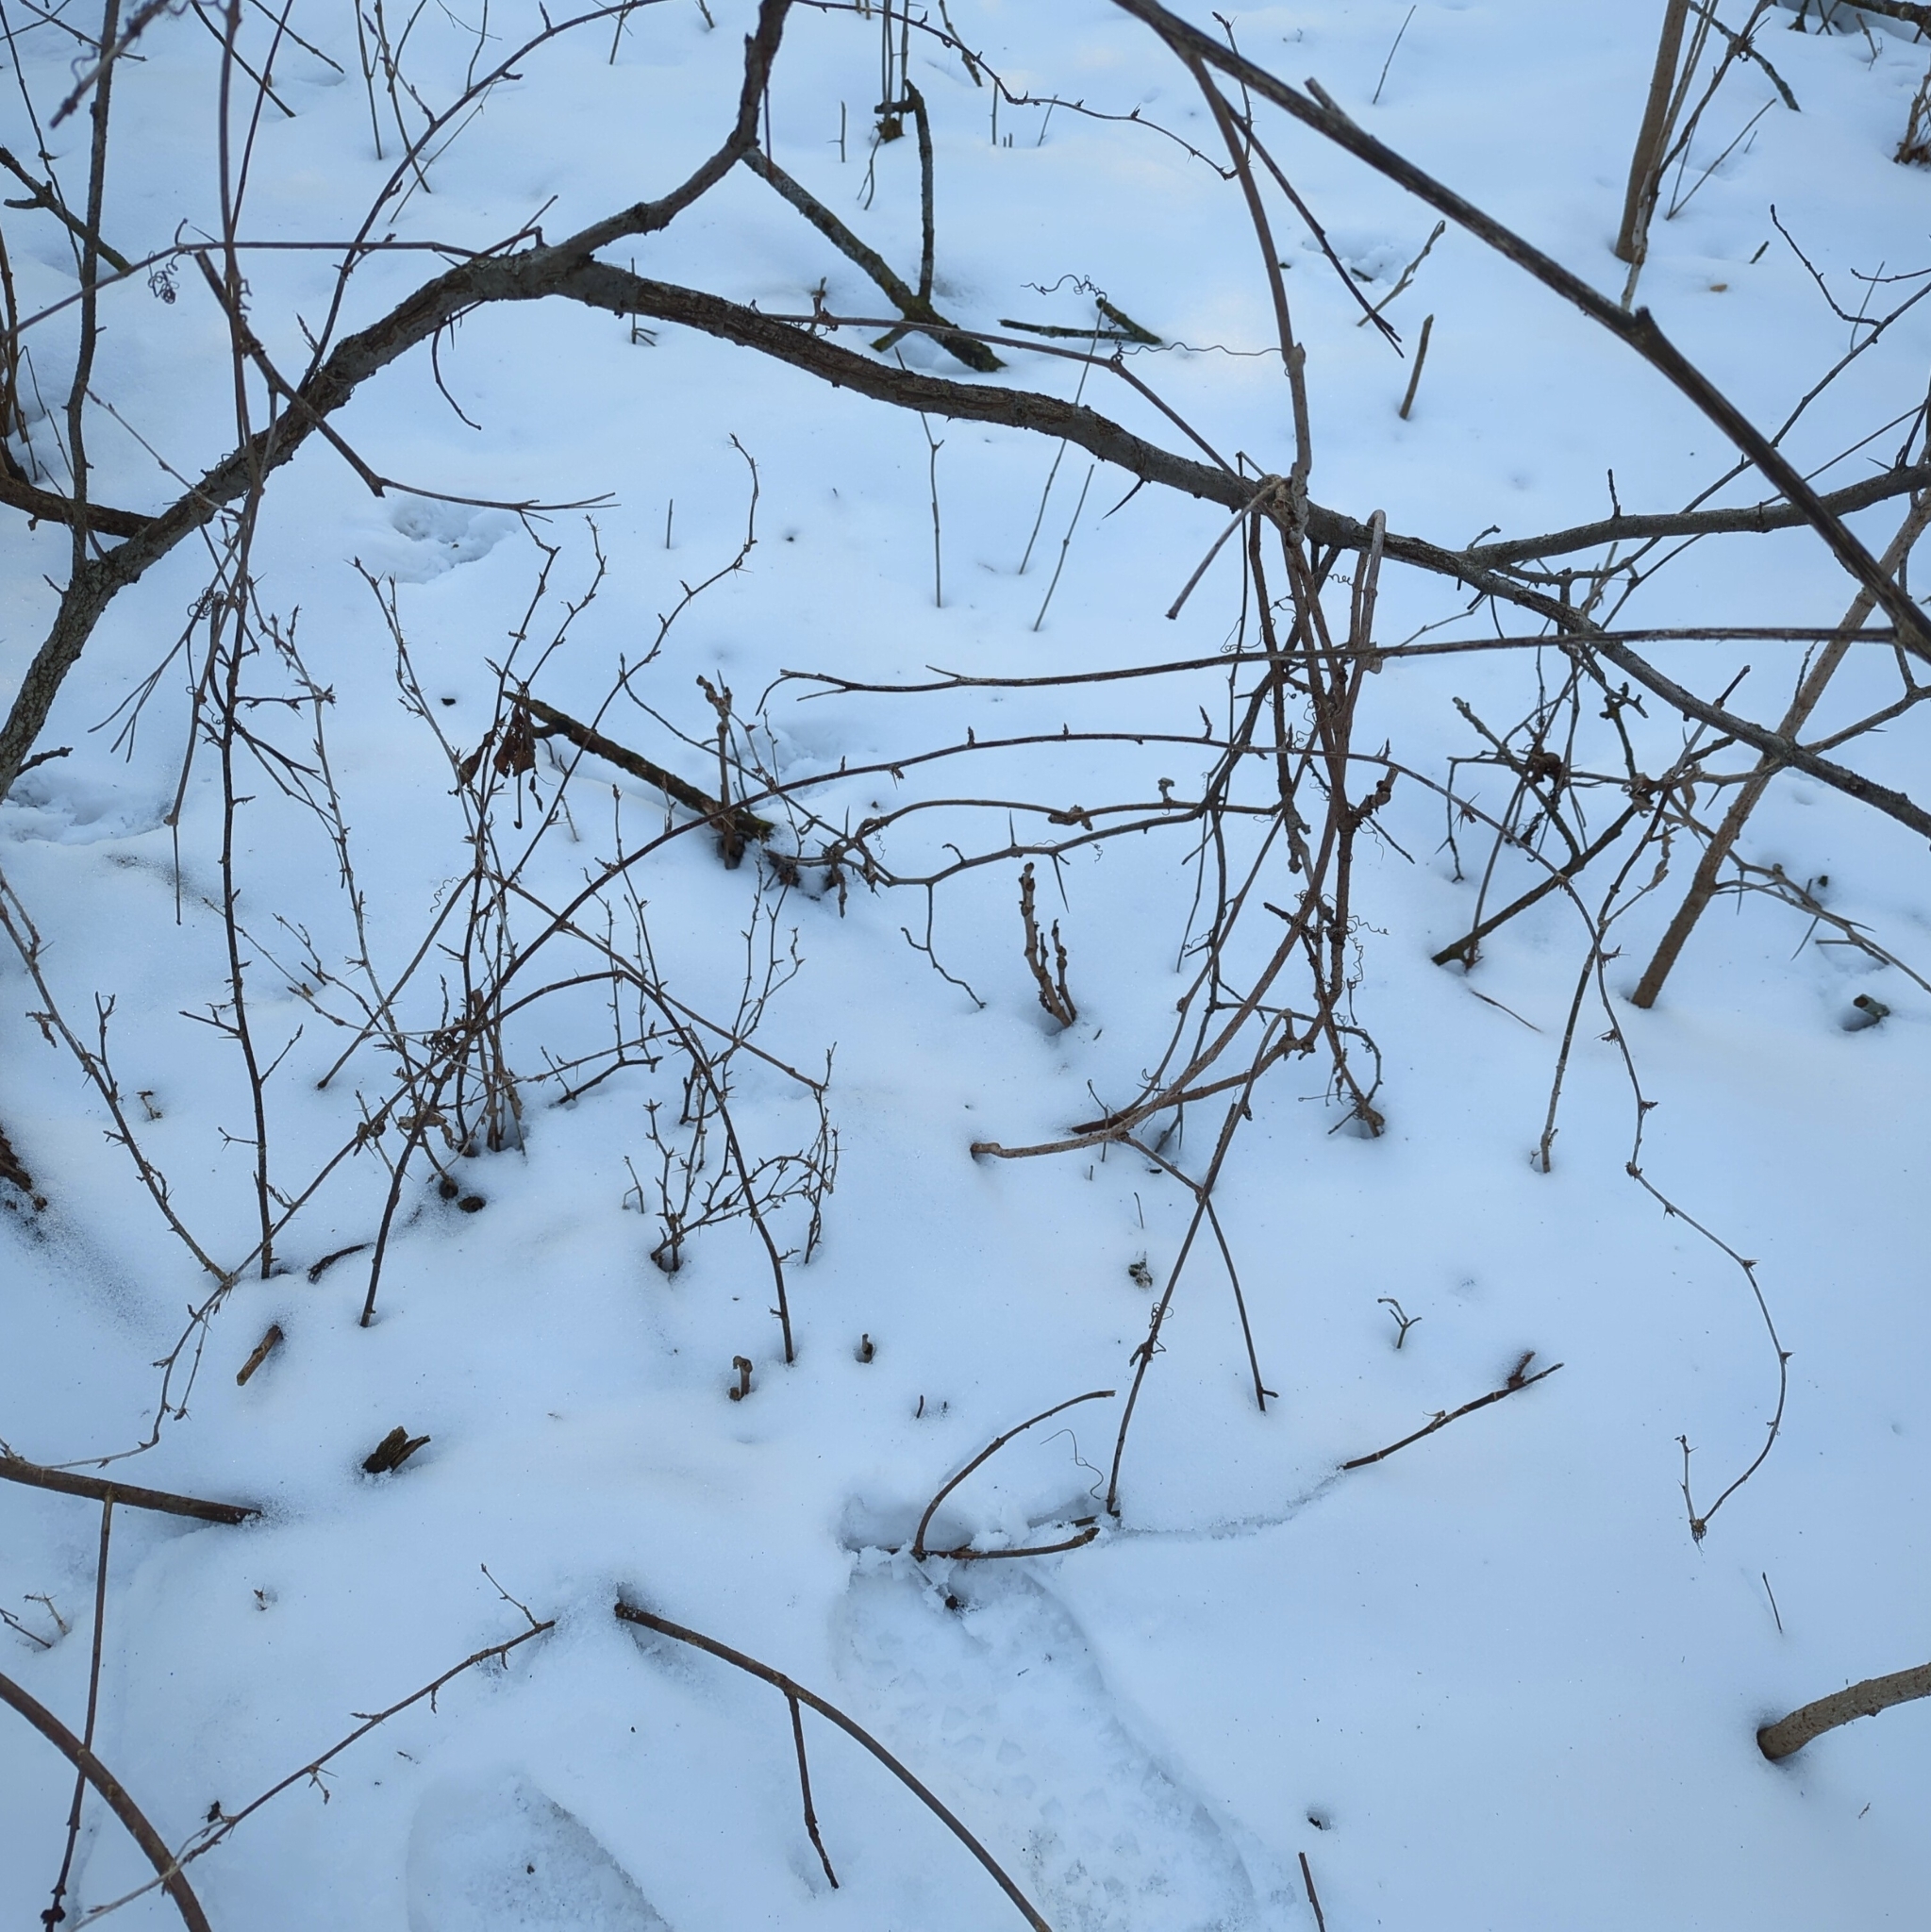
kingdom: Plantae
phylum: Tracheophyta
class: Magnoliopsida
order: Saxifragales
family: Grossulariaceae
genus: Ribes
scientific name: Ribes cynosbati
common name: American gooseberry
